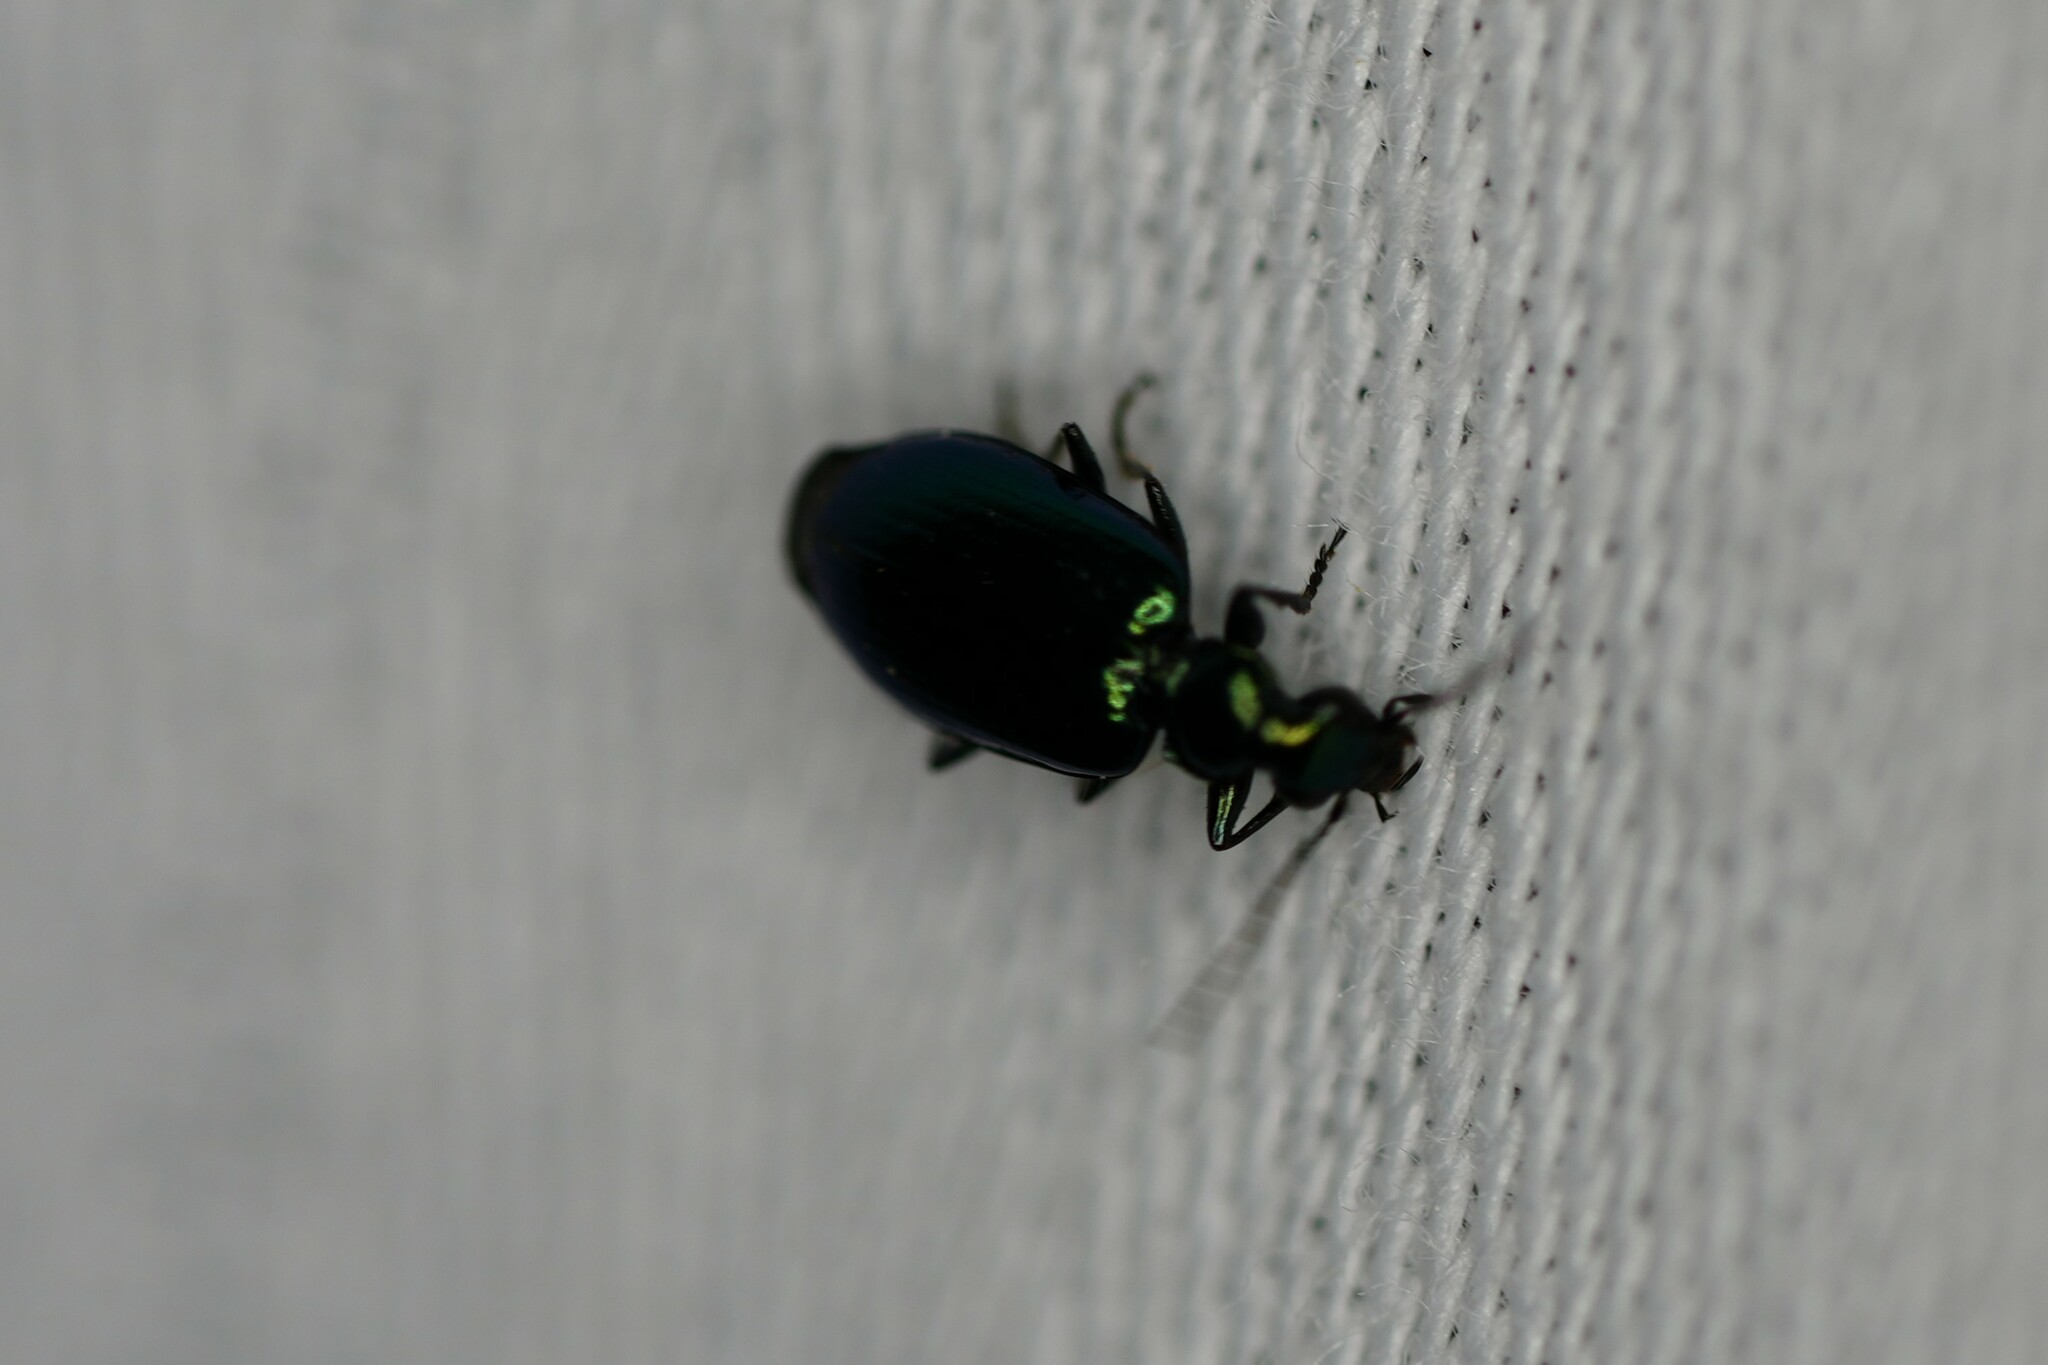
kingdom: Animalia
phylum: Arthropoda
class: Insecta
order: Coleoptera
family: Carabidae
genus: Lebia
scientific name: Lebia viridis
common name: Flower lebia beetle
